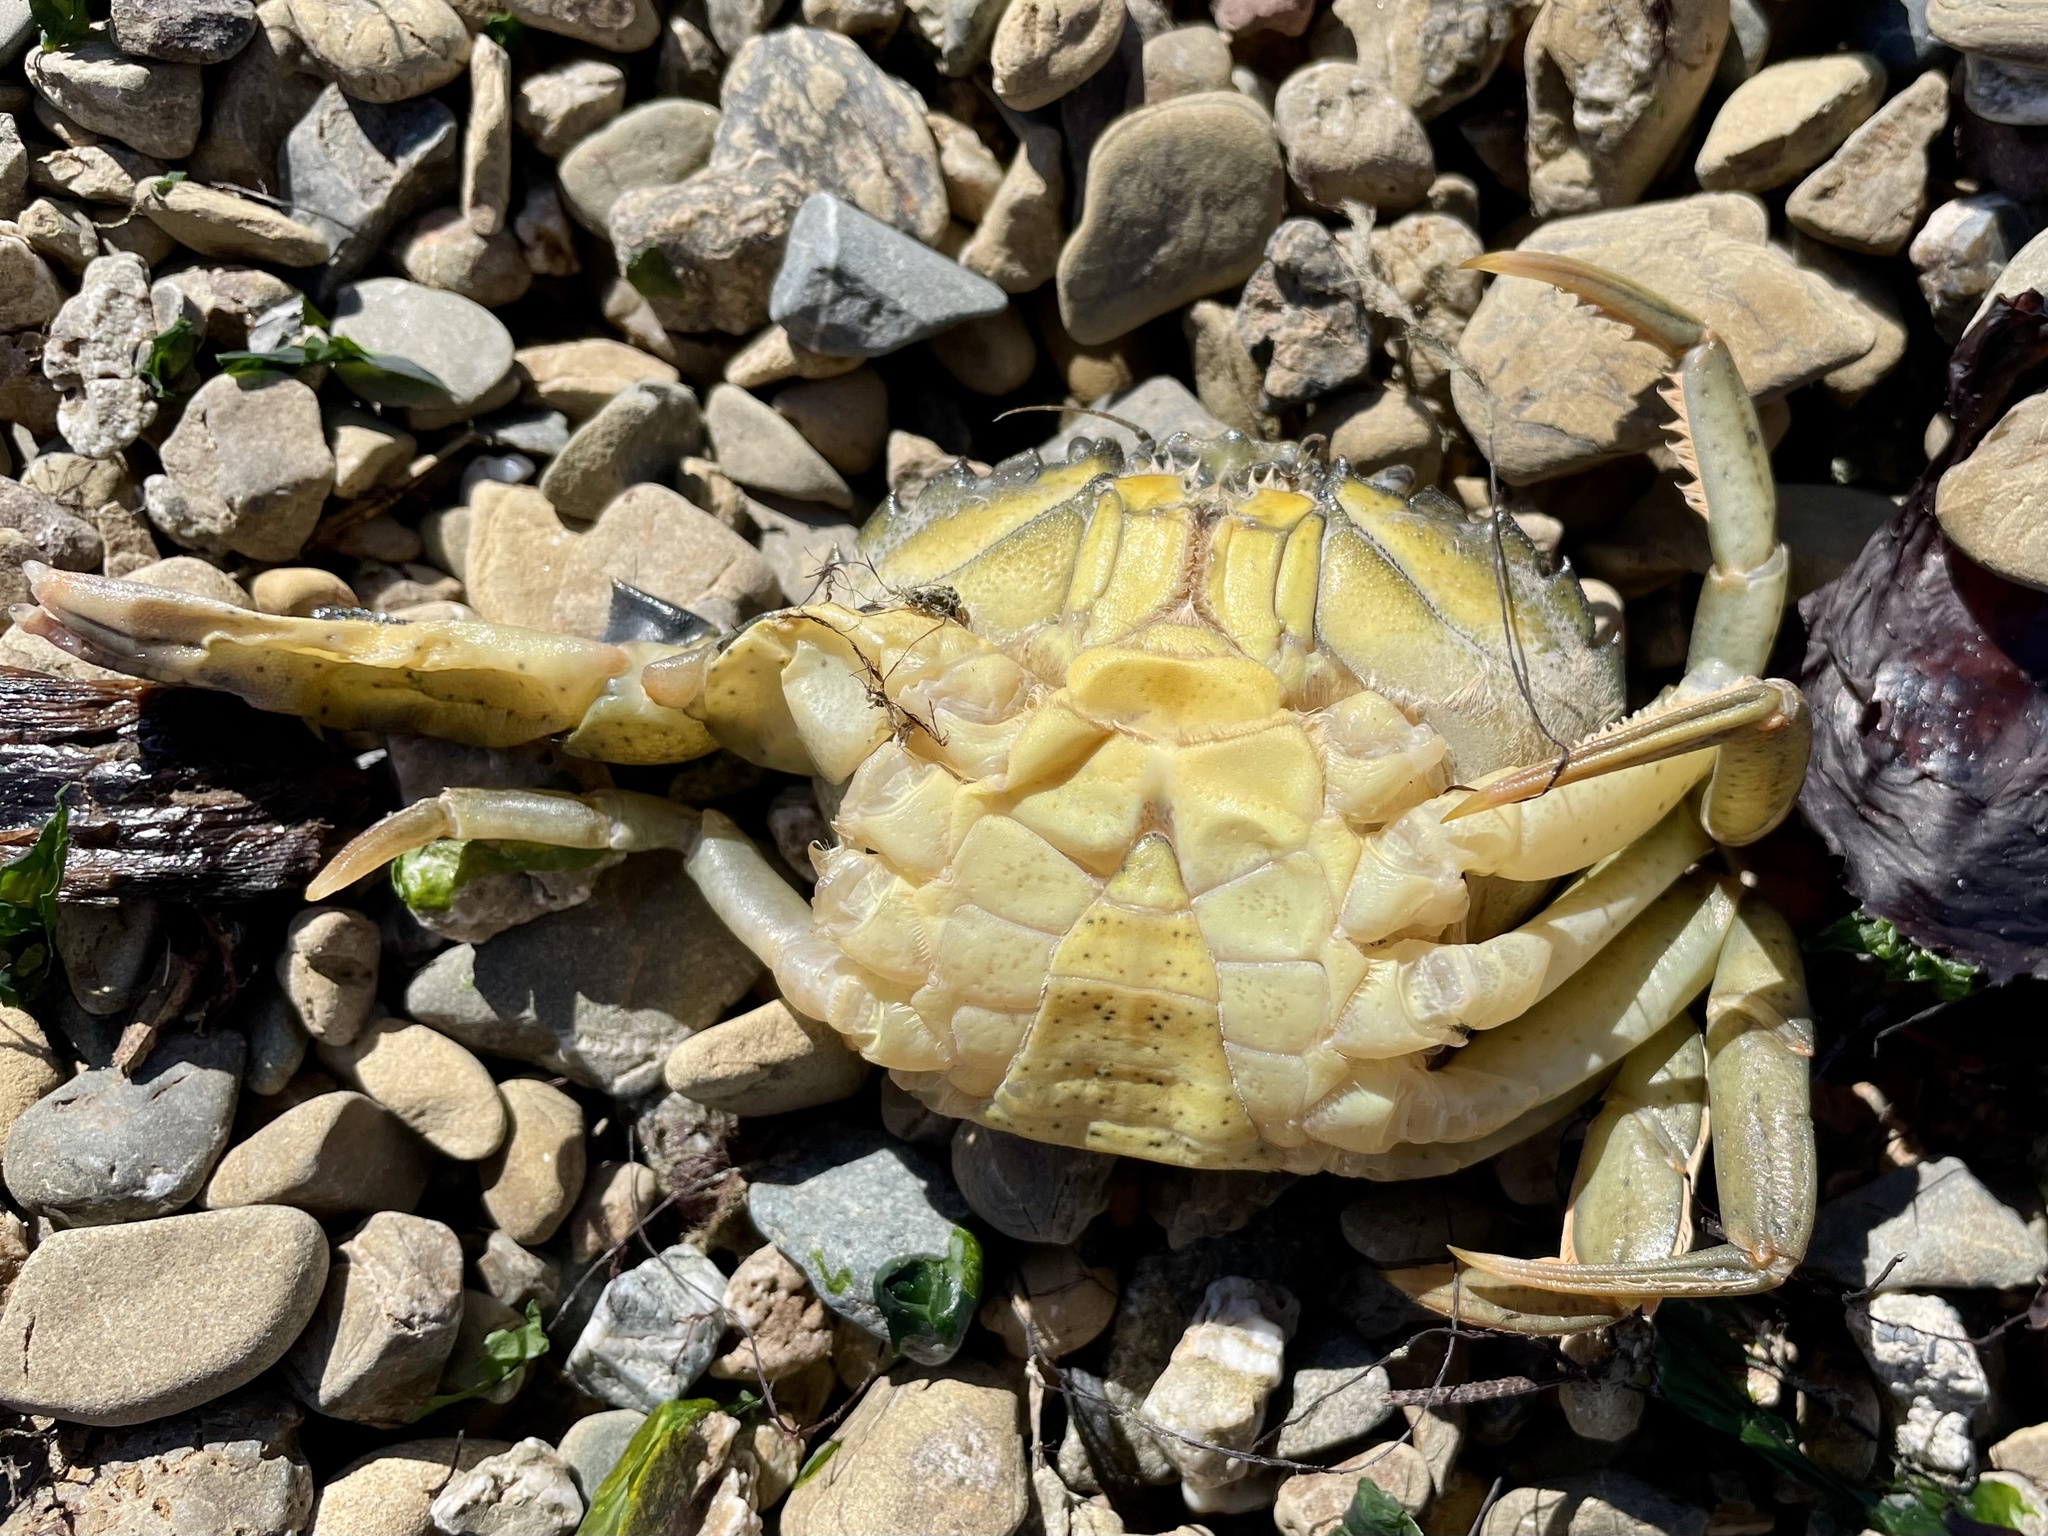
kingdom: Animalia
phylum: Arthropoda
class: Malacostraca
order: Decapoda
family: Carcinidae
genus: Carcinus
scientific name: Carcinus maenas
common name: European green crab
